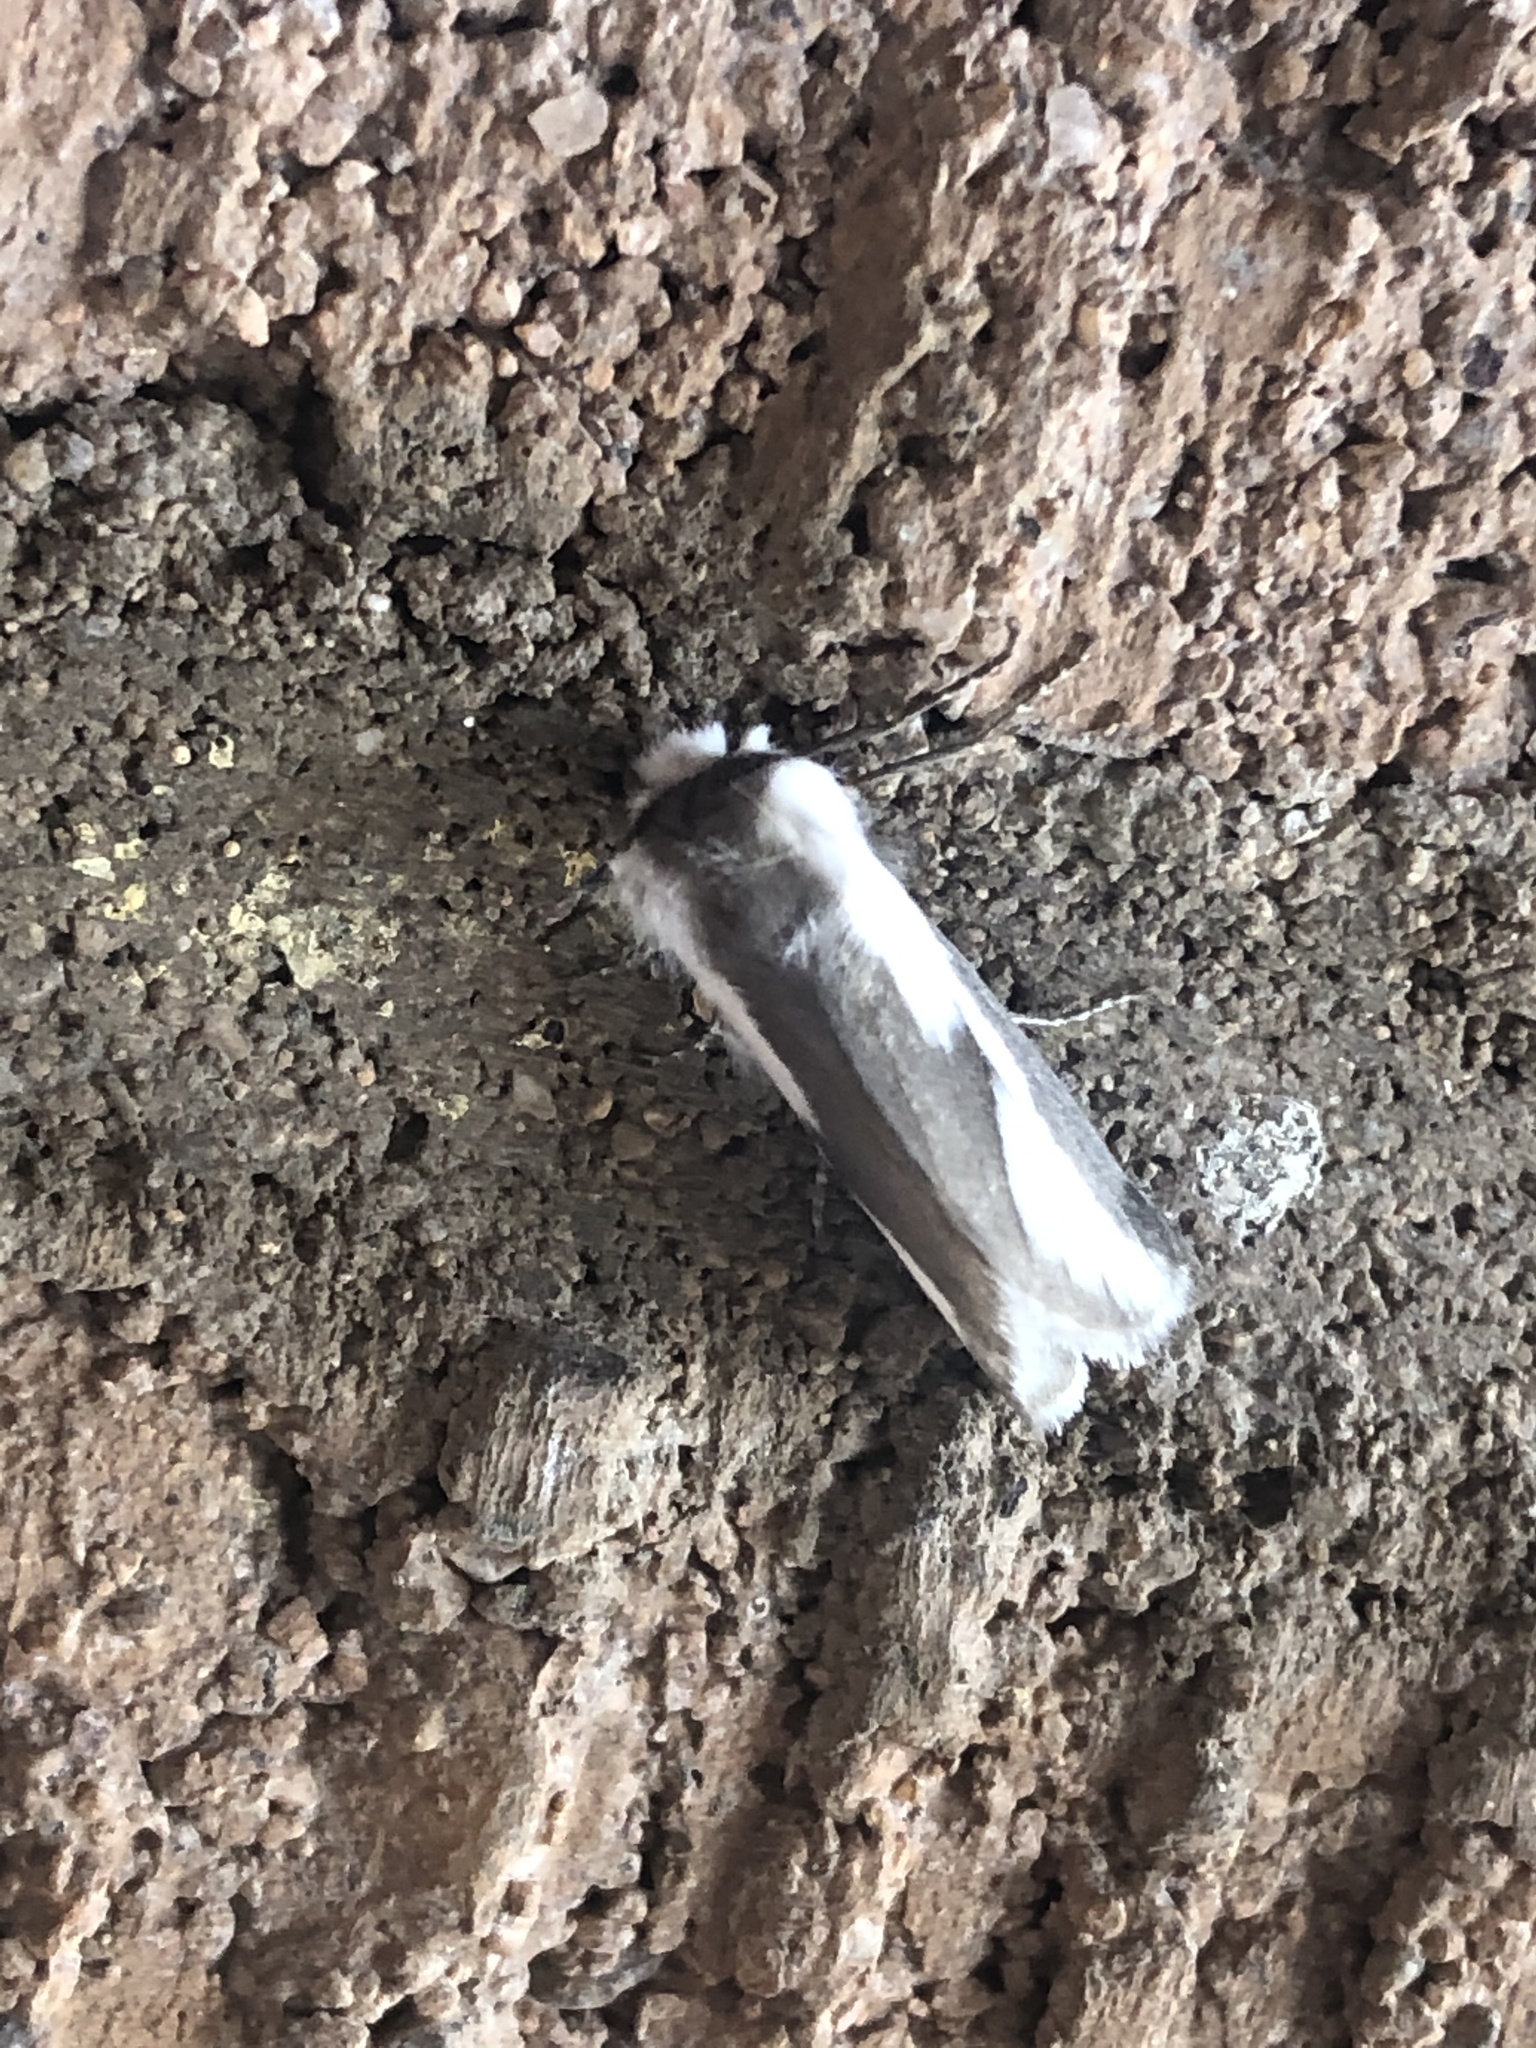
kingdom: Animalia
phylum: Arthropoda
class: Insecta
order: Lepidoptera
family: Megalopygidae
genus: Norape
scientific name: Norape tener
